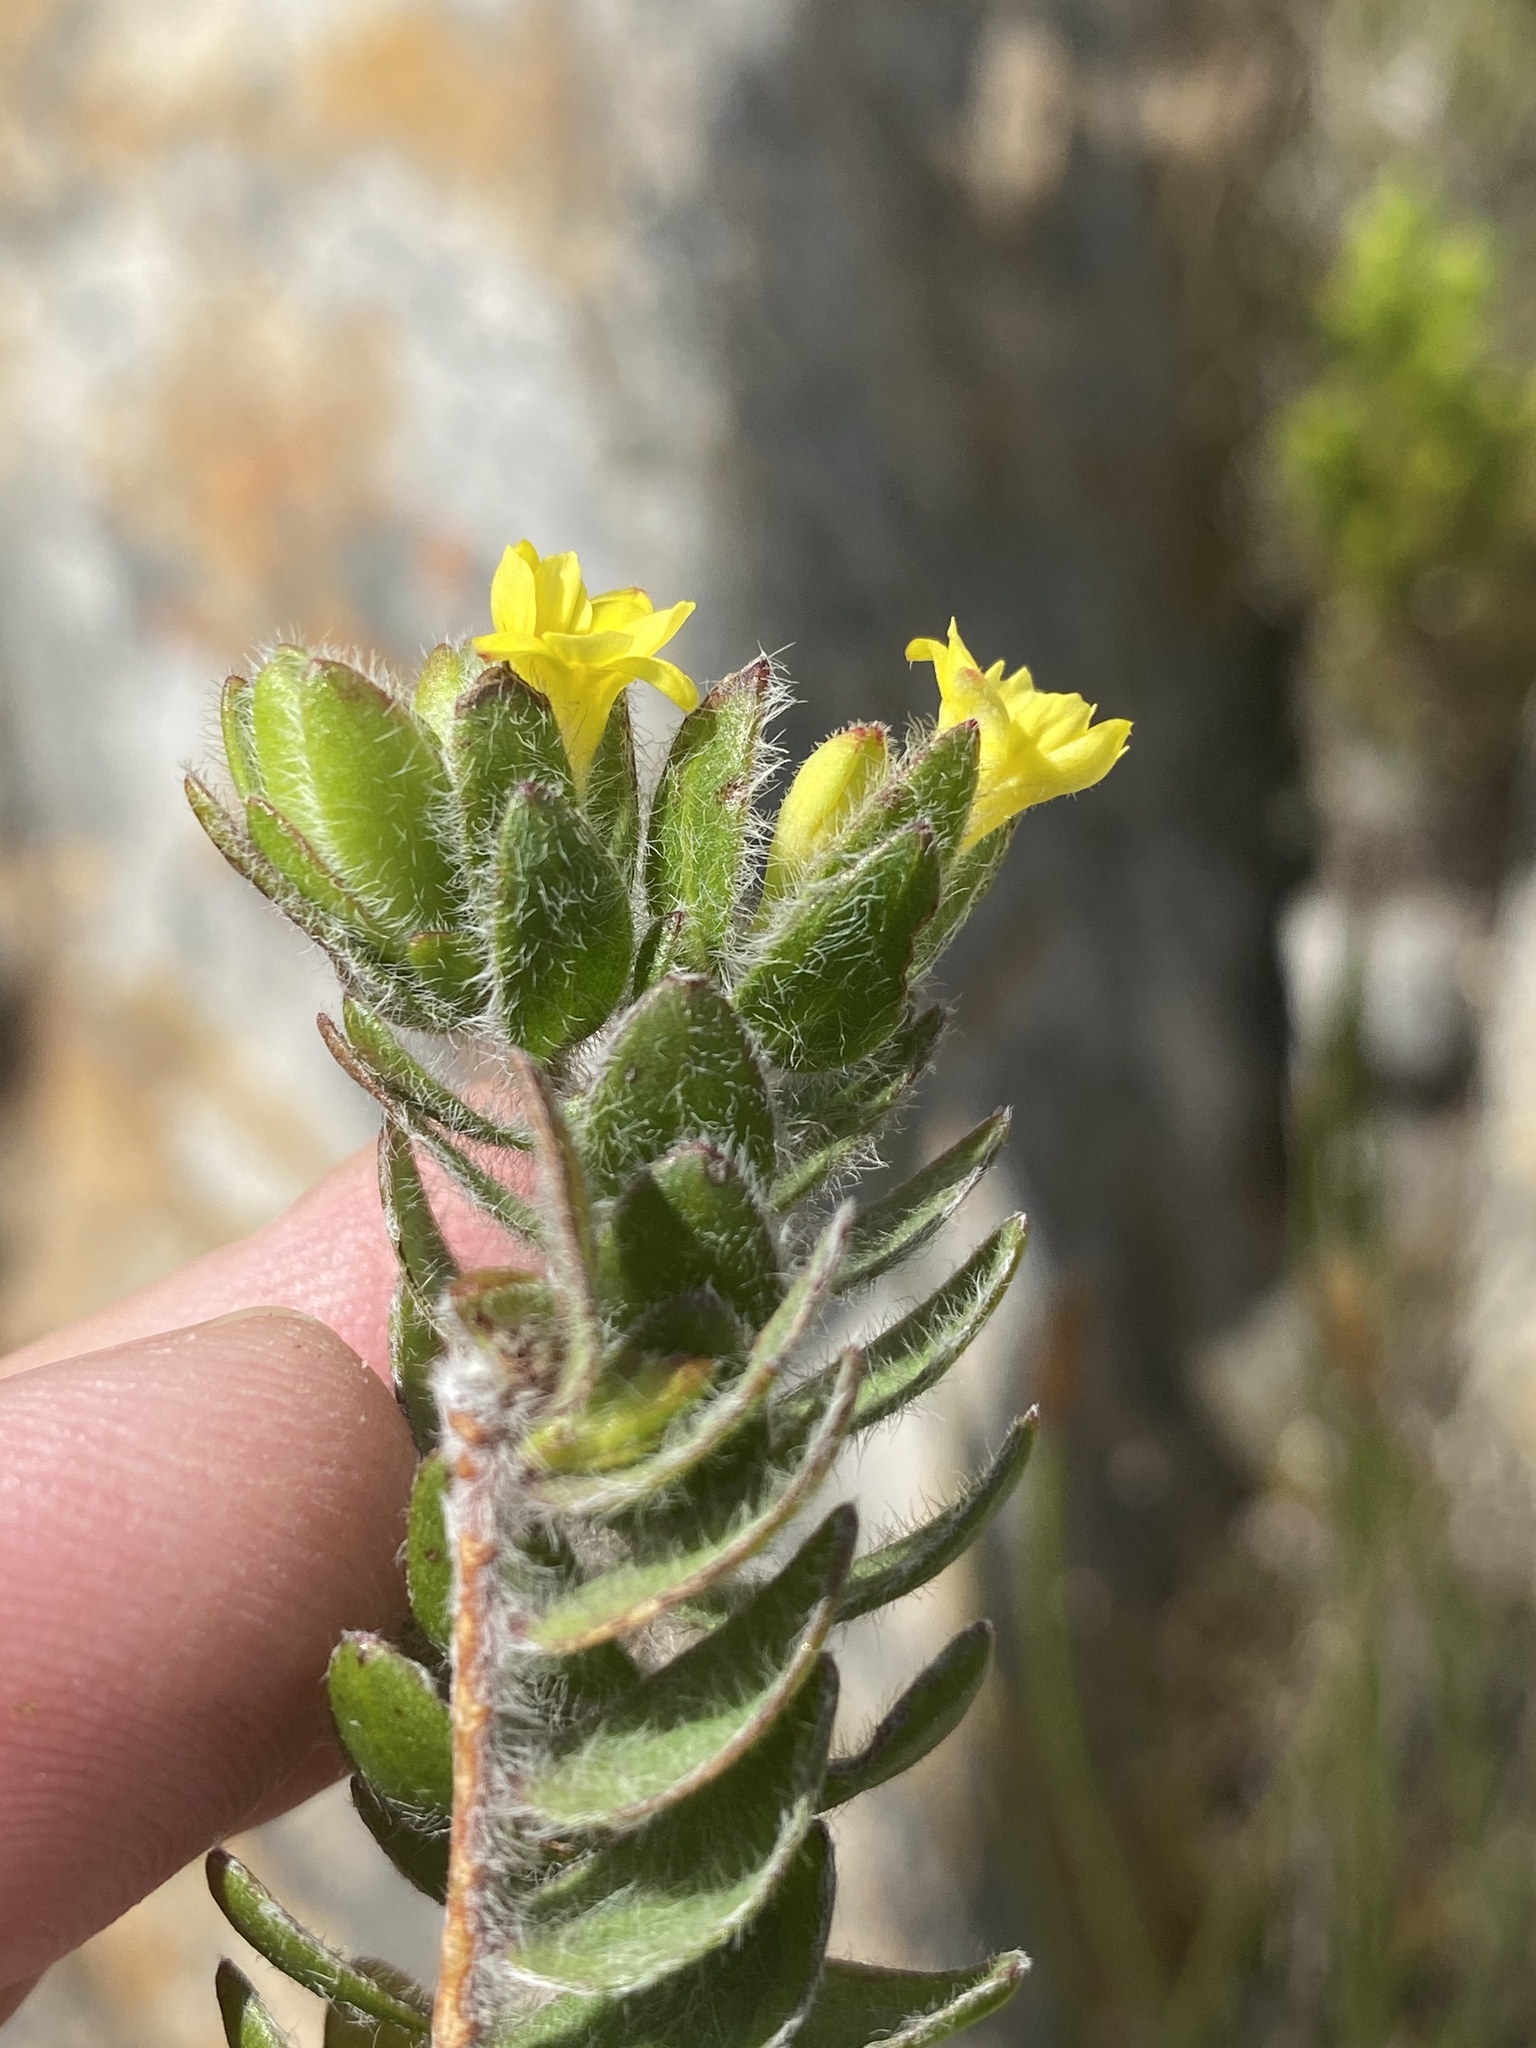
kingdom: Plantae
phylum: Tracheophyta
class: Magnoliopsida
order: Malvales
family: Thymelaeaceae
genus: Gnidia
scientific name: Gnidia sonderiana
